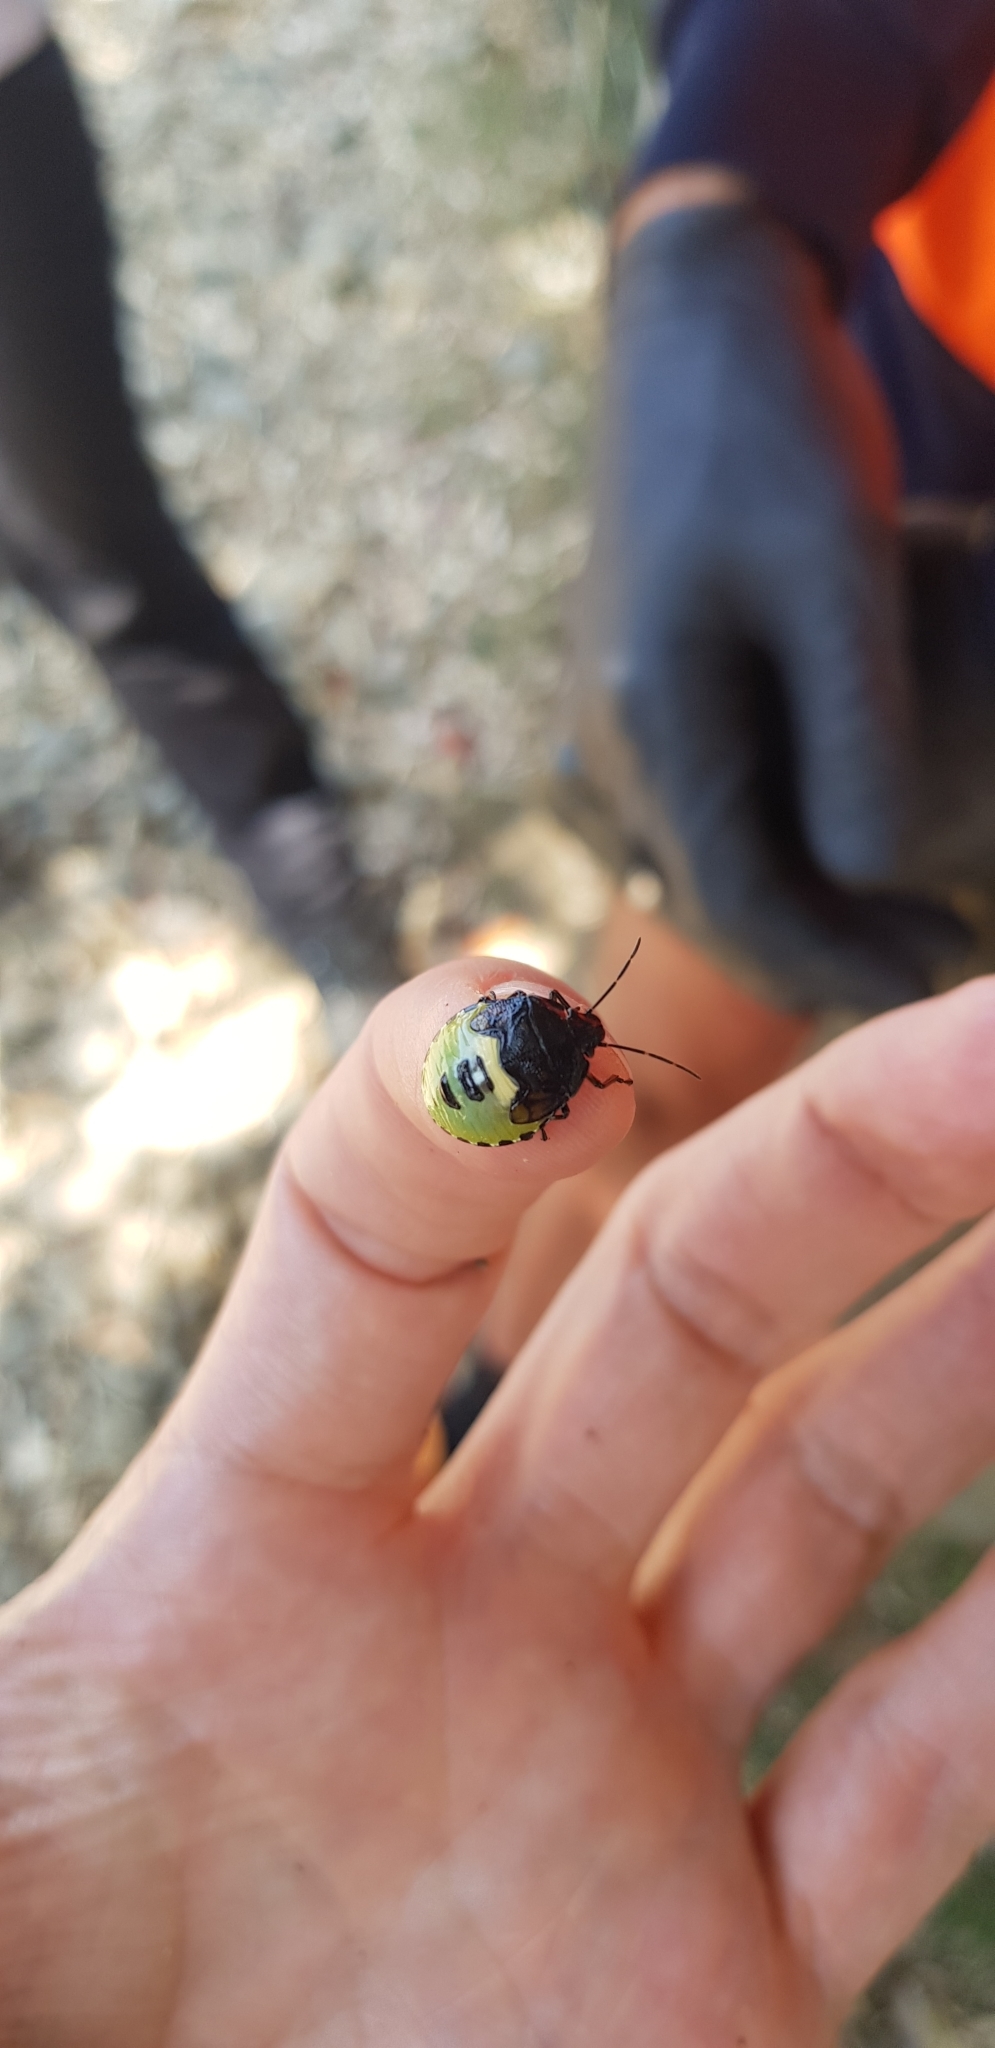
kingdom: Animalia
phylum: Arthropoda
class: Insecta
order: Hemiptera
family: Pentatomidae
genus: Glaucias
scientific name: Glaucias amyota
